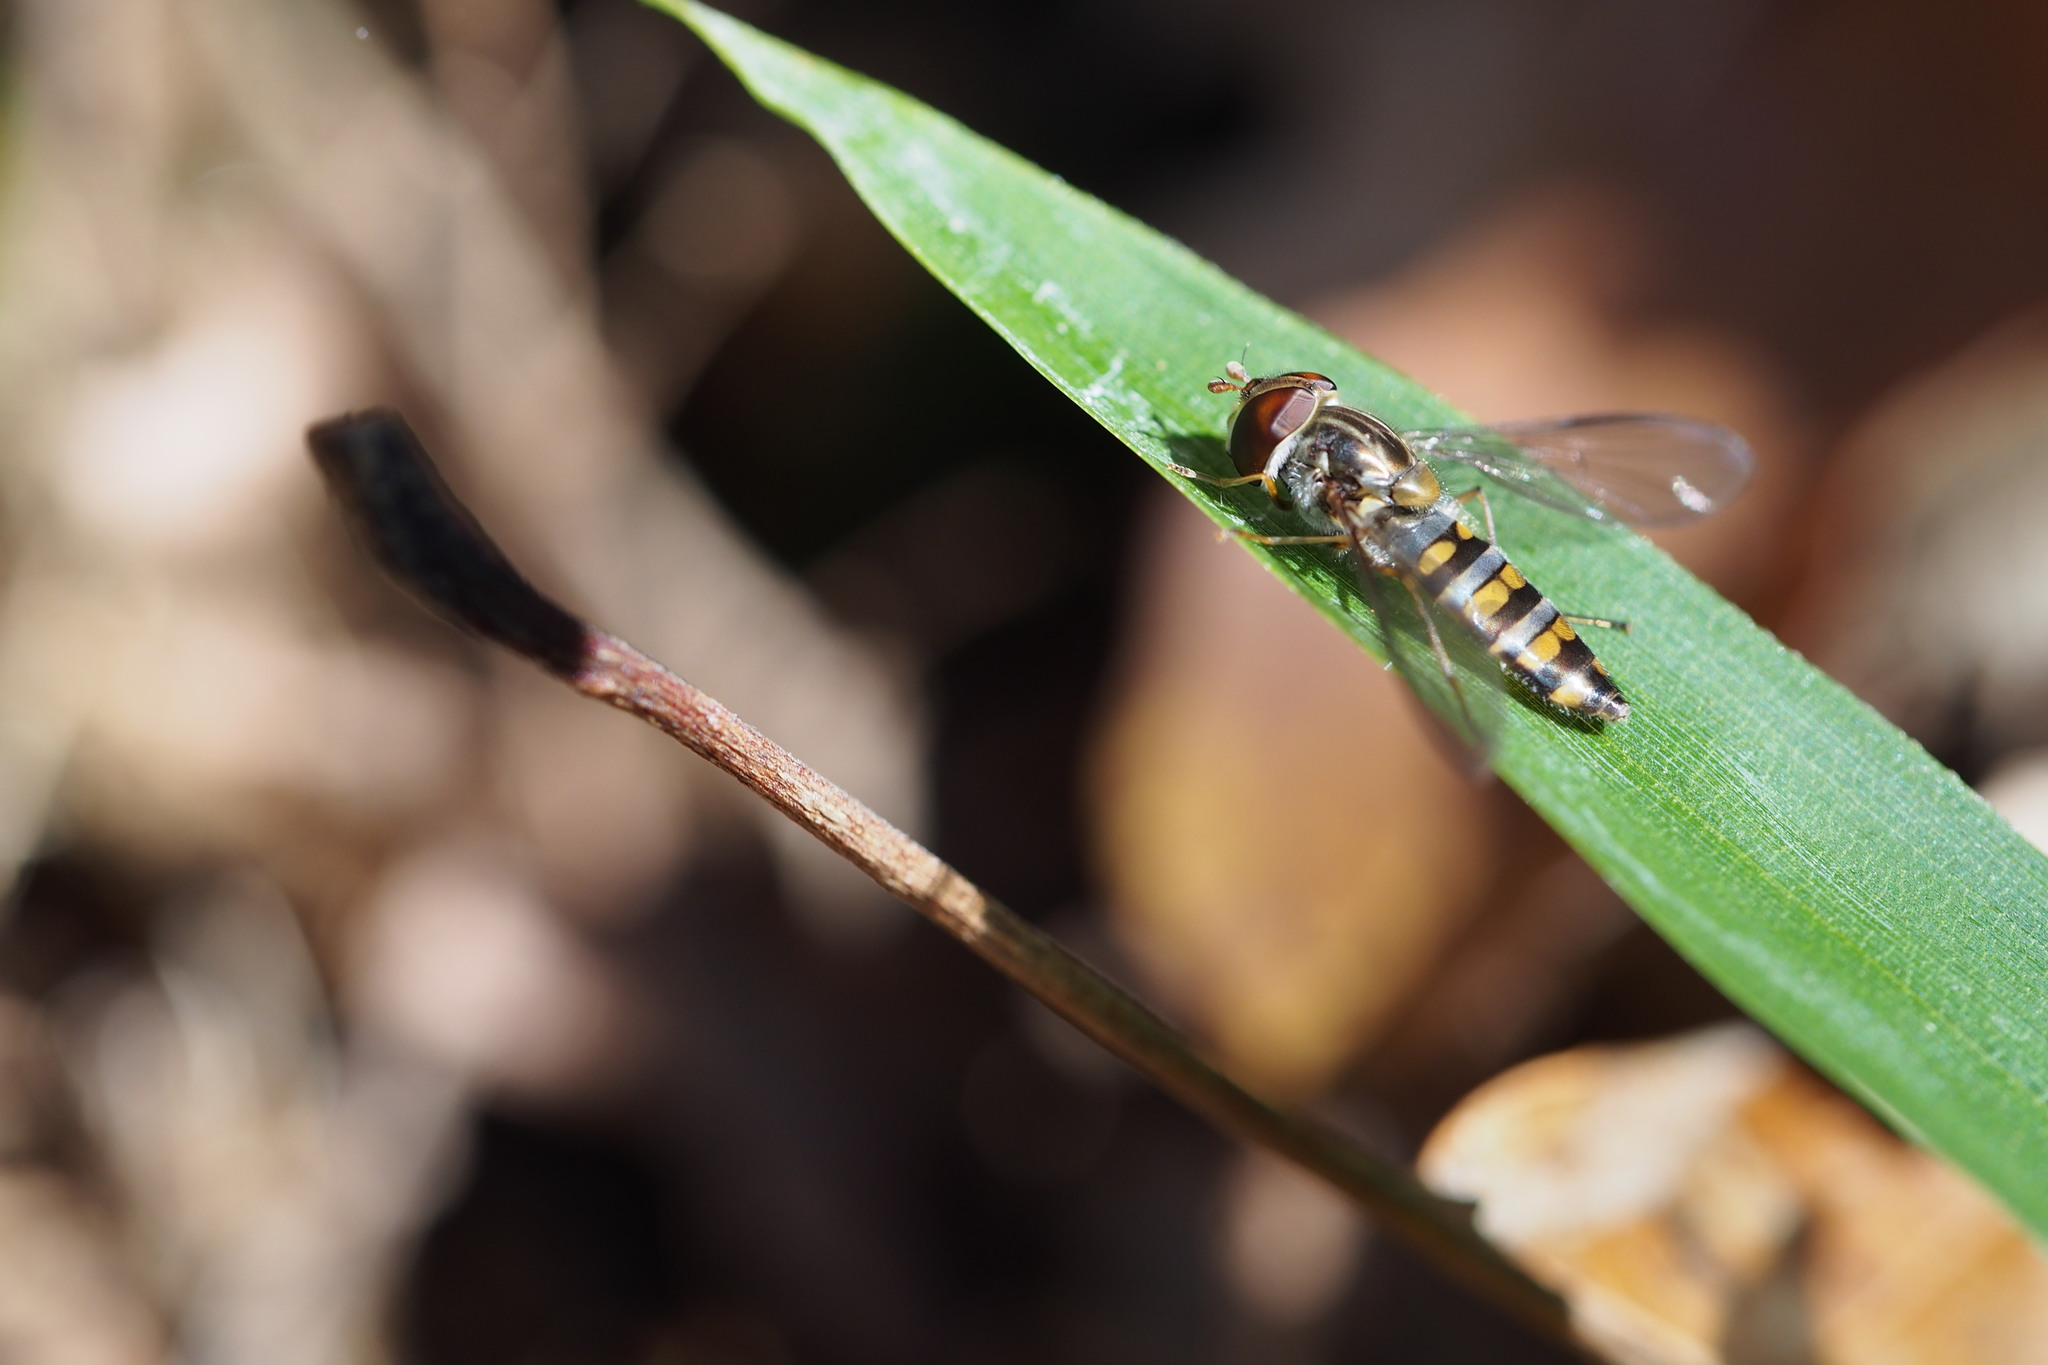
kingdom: Animalia
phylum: Arthropoda
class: Insecta
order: Diptera
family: Syrphidae
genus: Episyrphus
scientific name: Episyrphus balteatus
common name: Marmalade hoverfly
